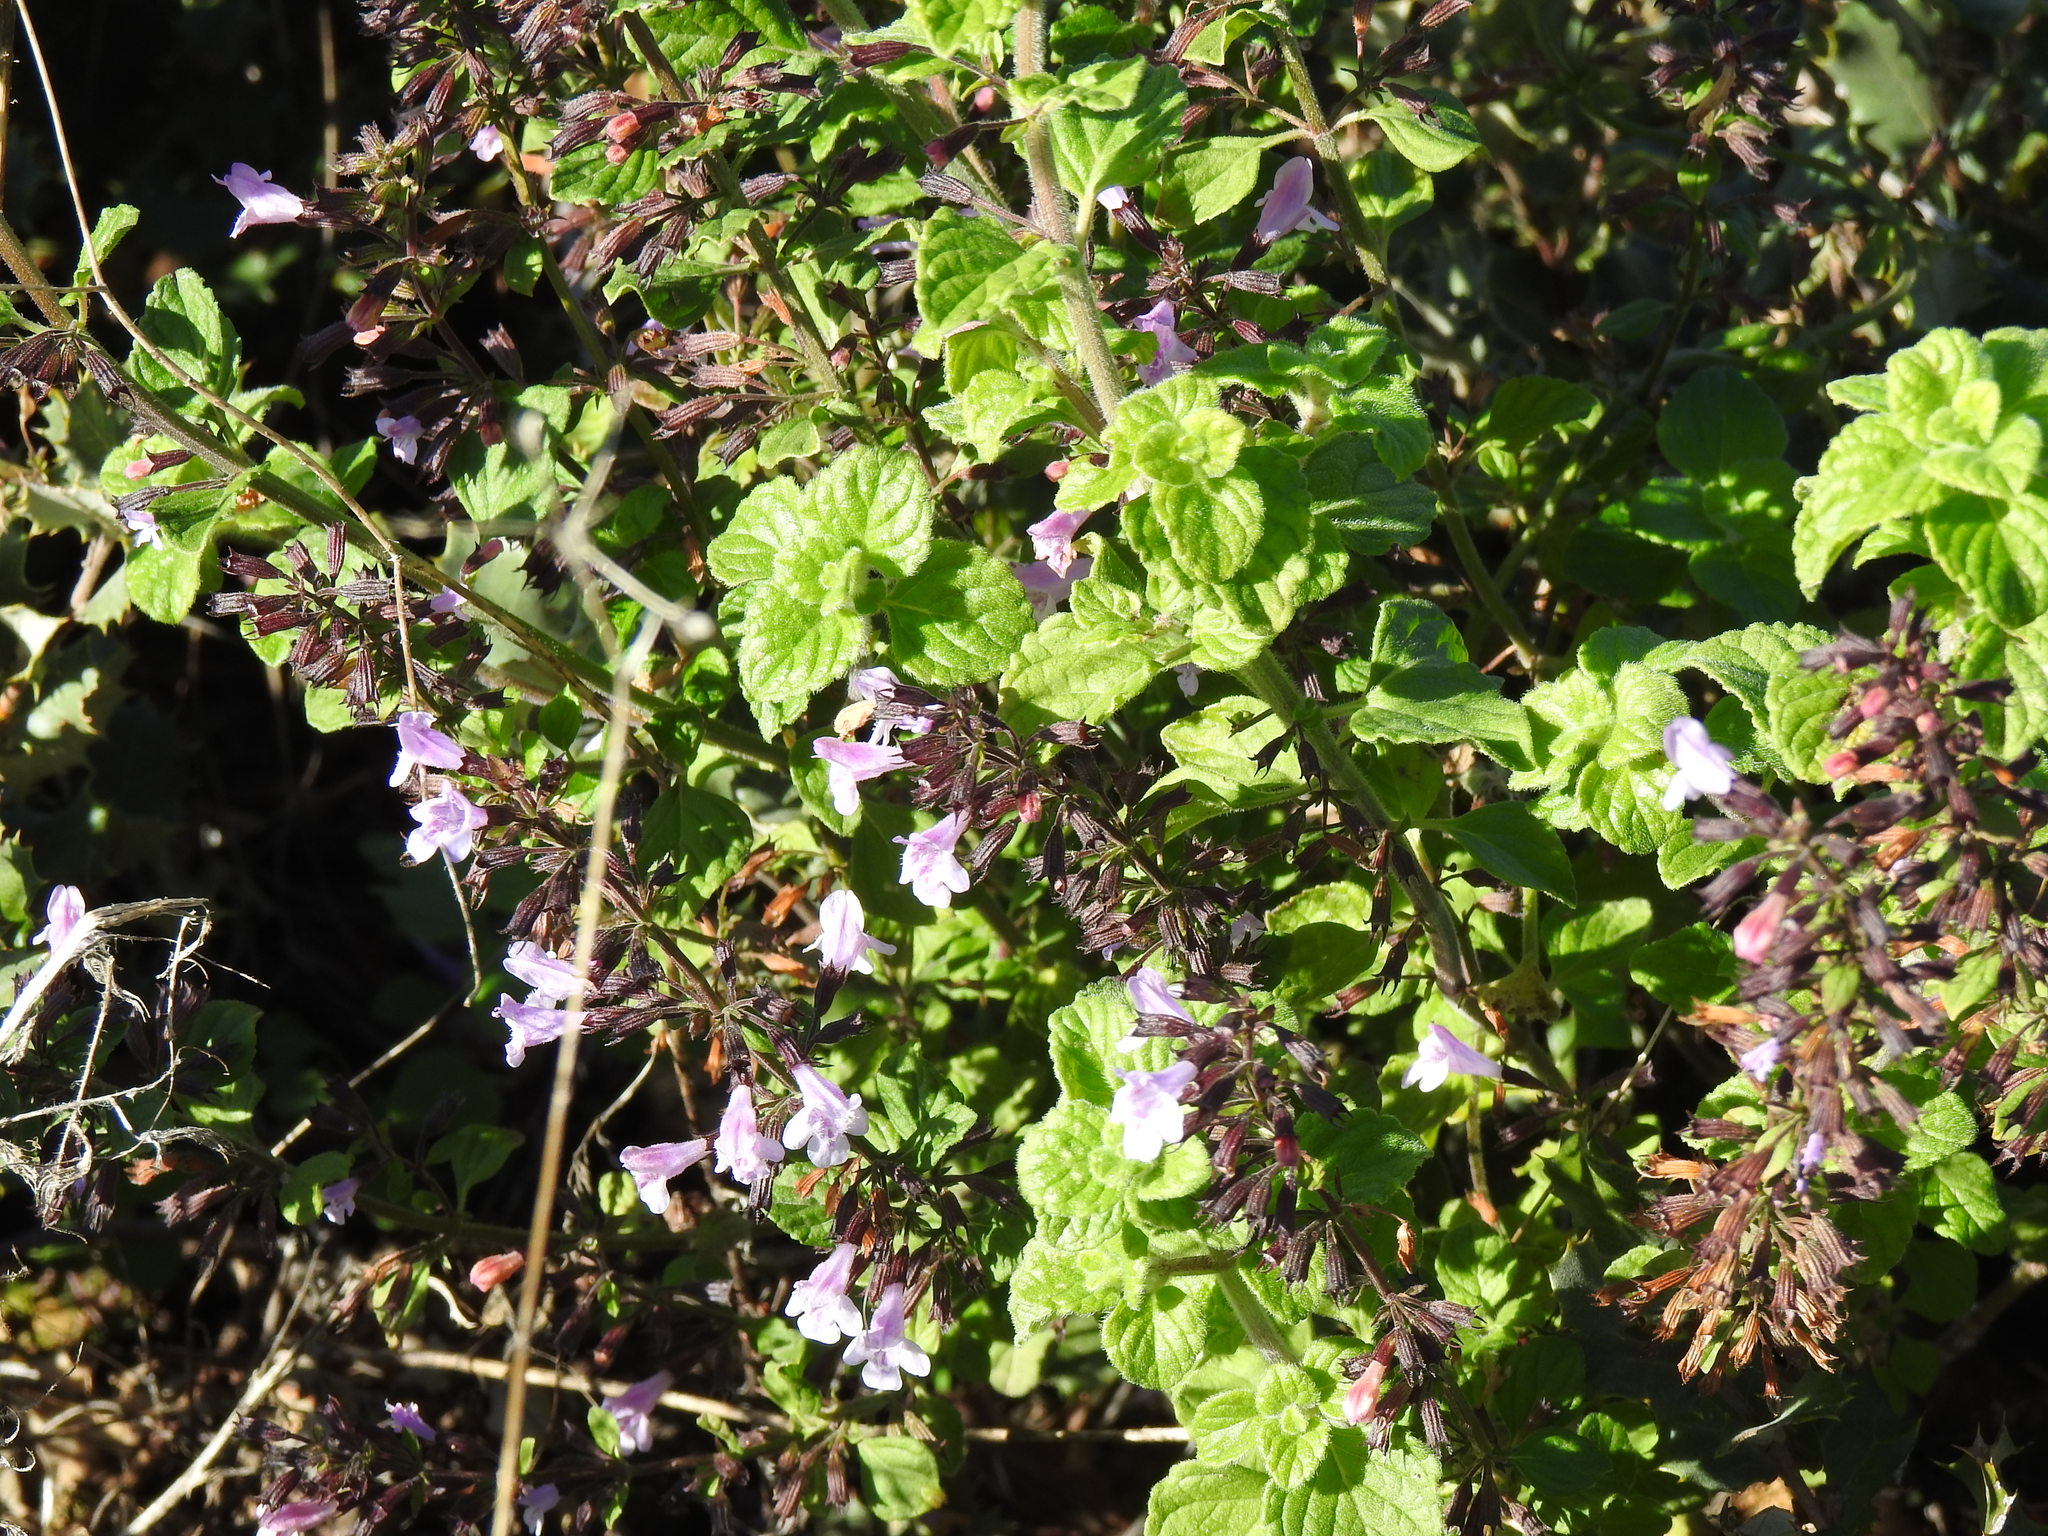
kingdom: Plantae
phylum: Tracheophyta
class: Magnoliopsida
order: Lamiales
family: Lamiaceae
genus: Clinopodium
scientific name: Clinopodium nepeta
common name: Lesser calamint
